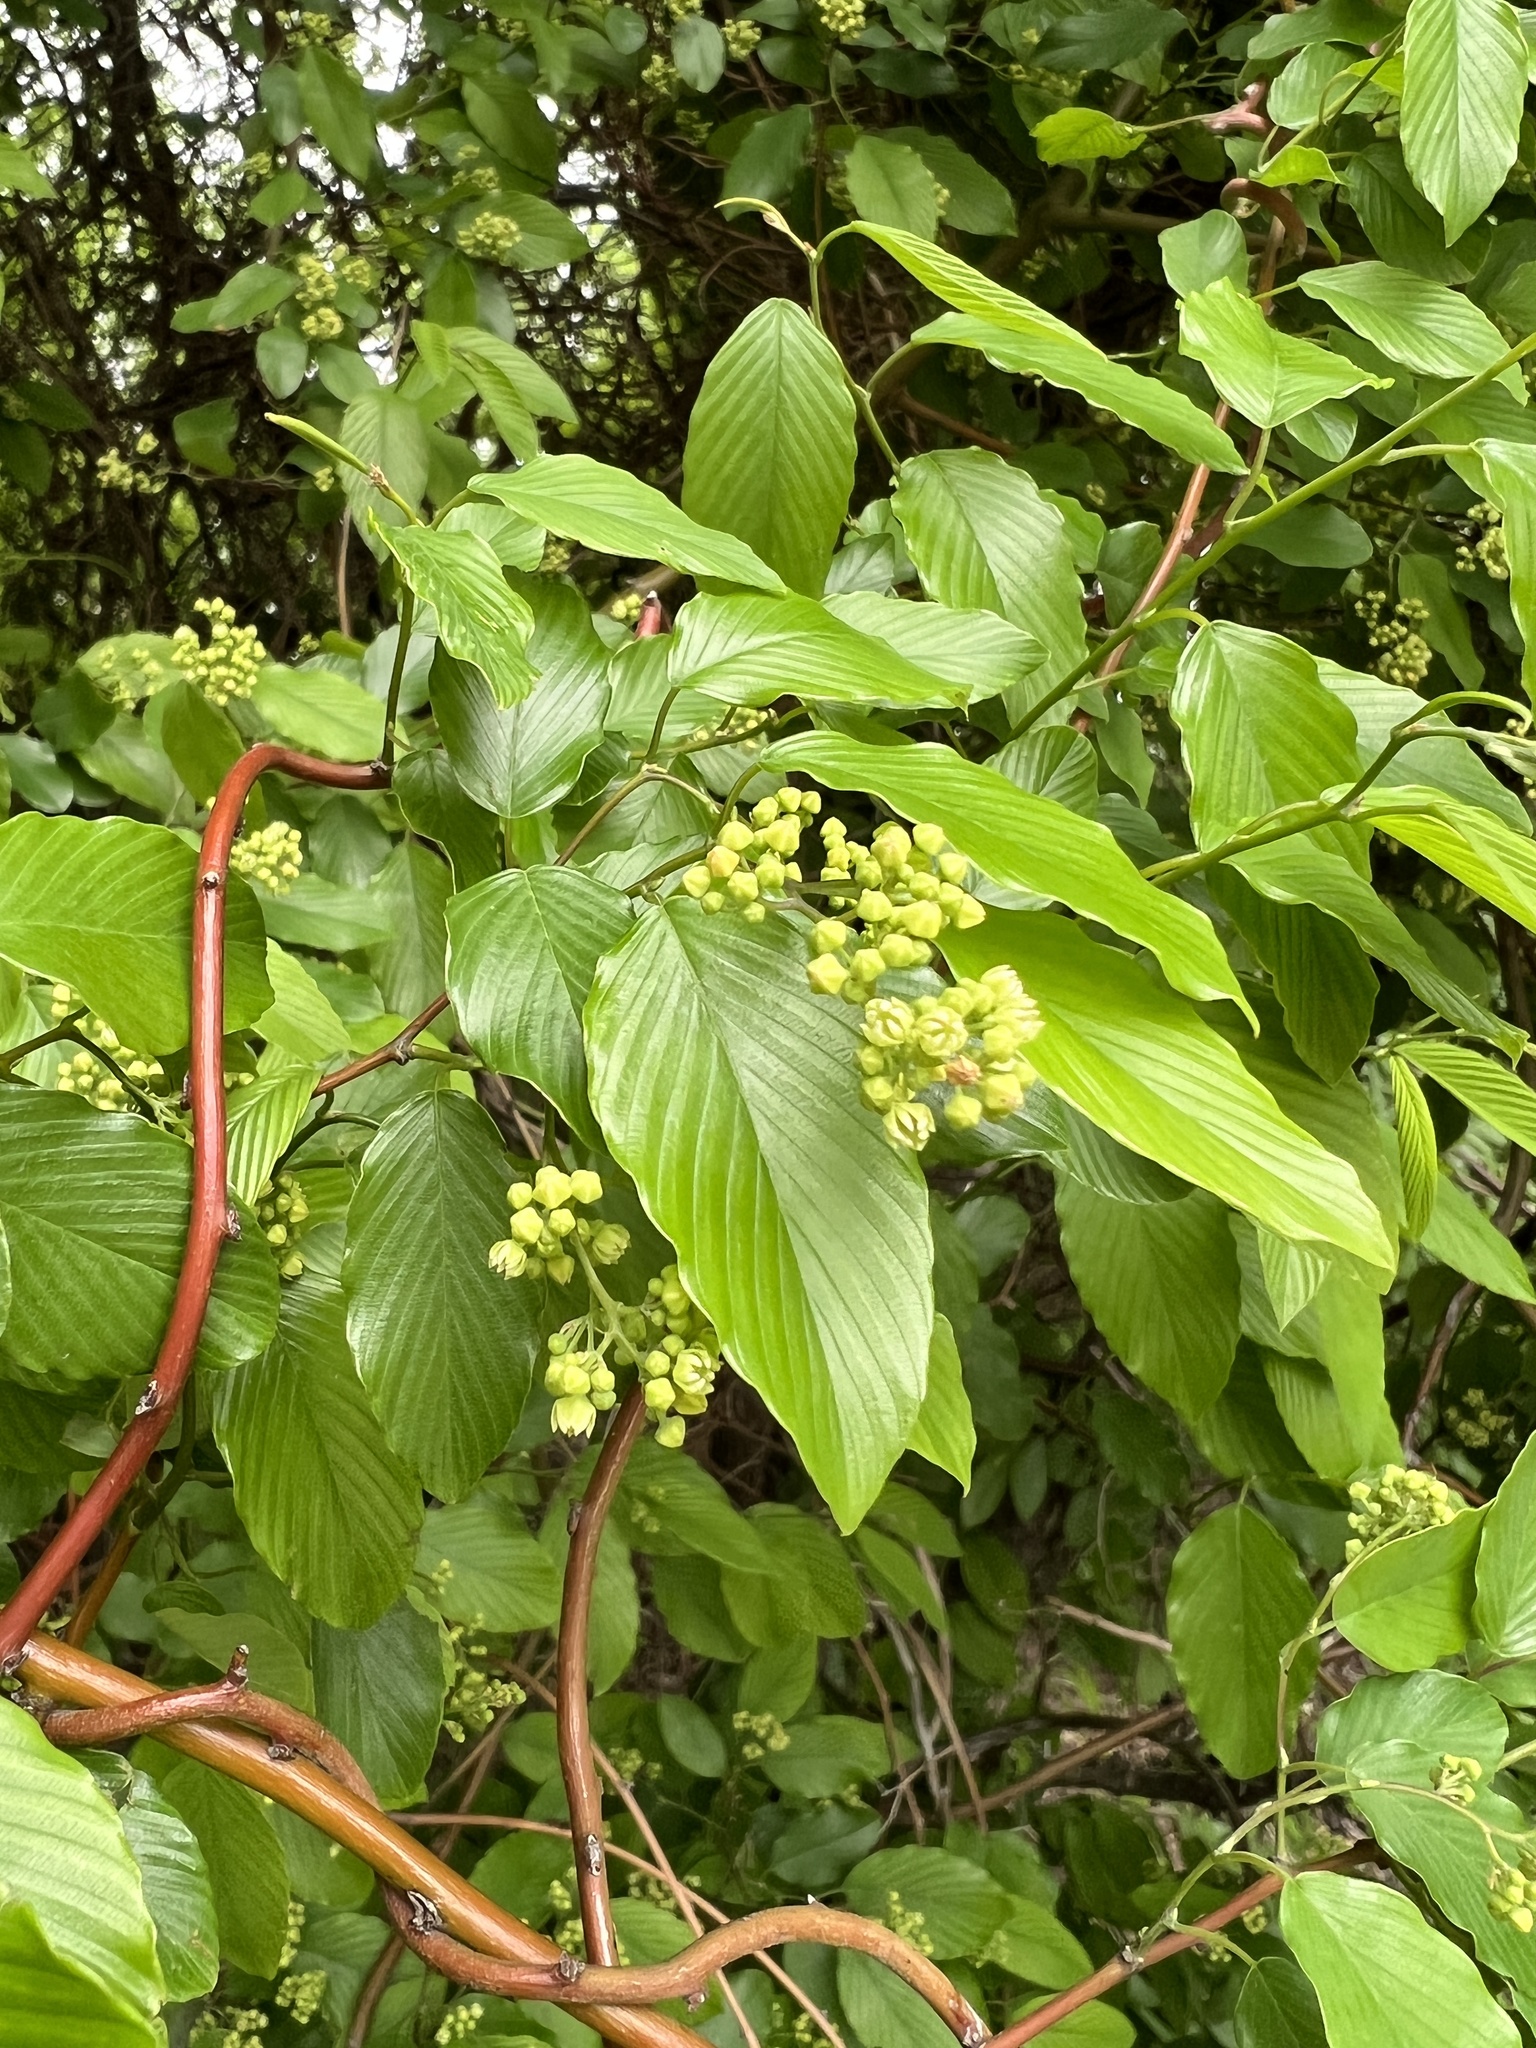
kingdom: Plantae
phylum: Tracheophyta
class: Magnoliopsida
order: Rosales
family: Rhamnaceae
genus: Berchemia
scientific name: Berchemia scandens
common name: Supplejack
